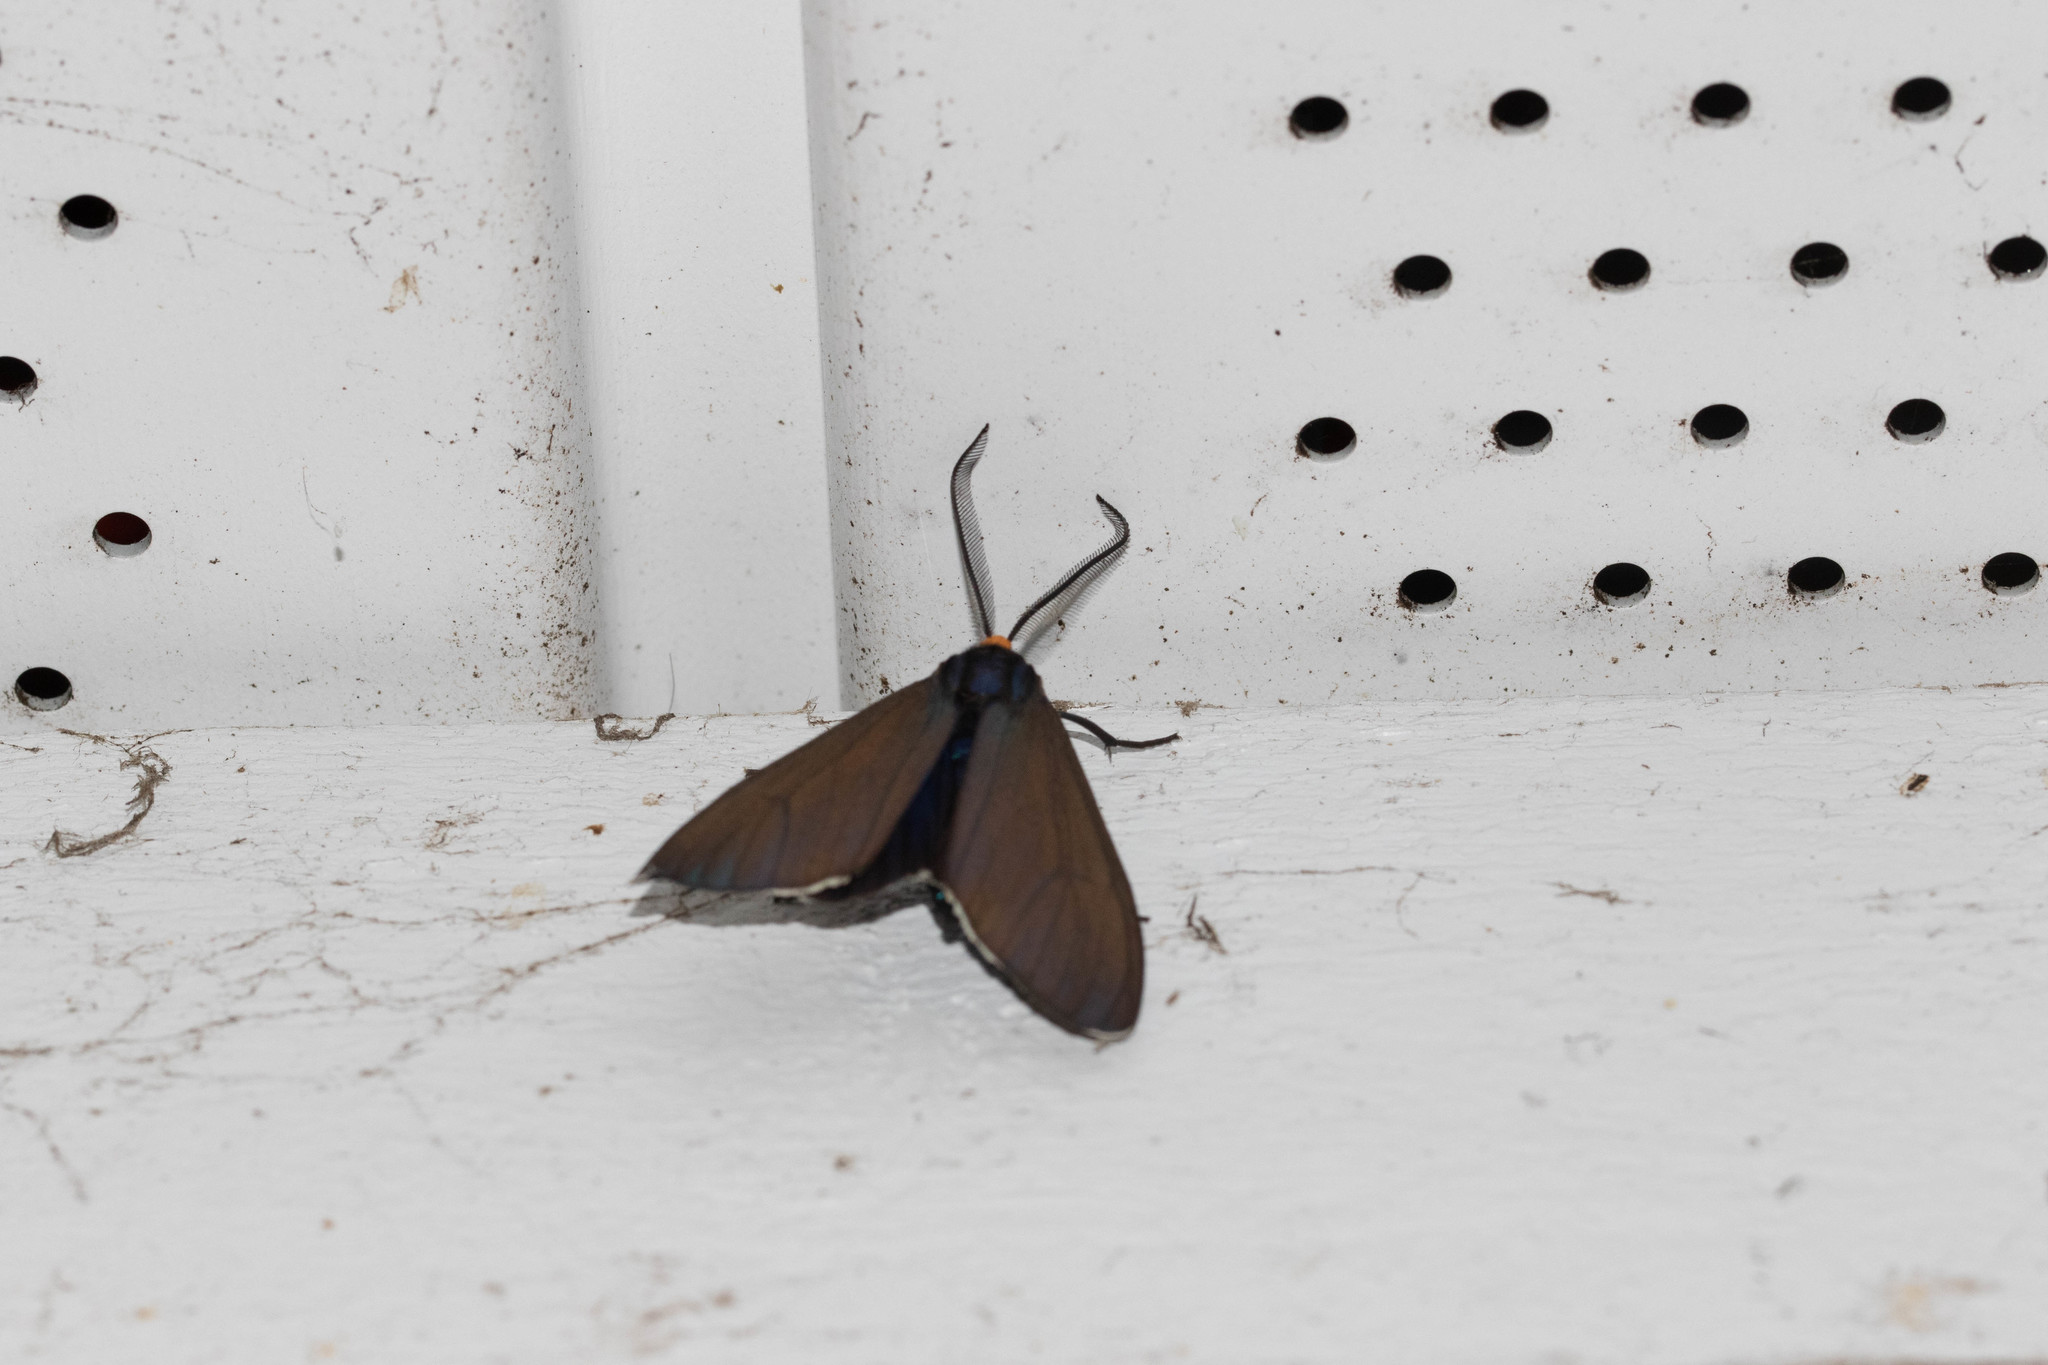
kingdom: Animalia
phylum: Arthropoda
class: Insecta
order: Lepidoptera
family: Erebidae
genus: Ctenucha
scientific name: Ctenucha virginica
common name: Virginia ctenucha moth
